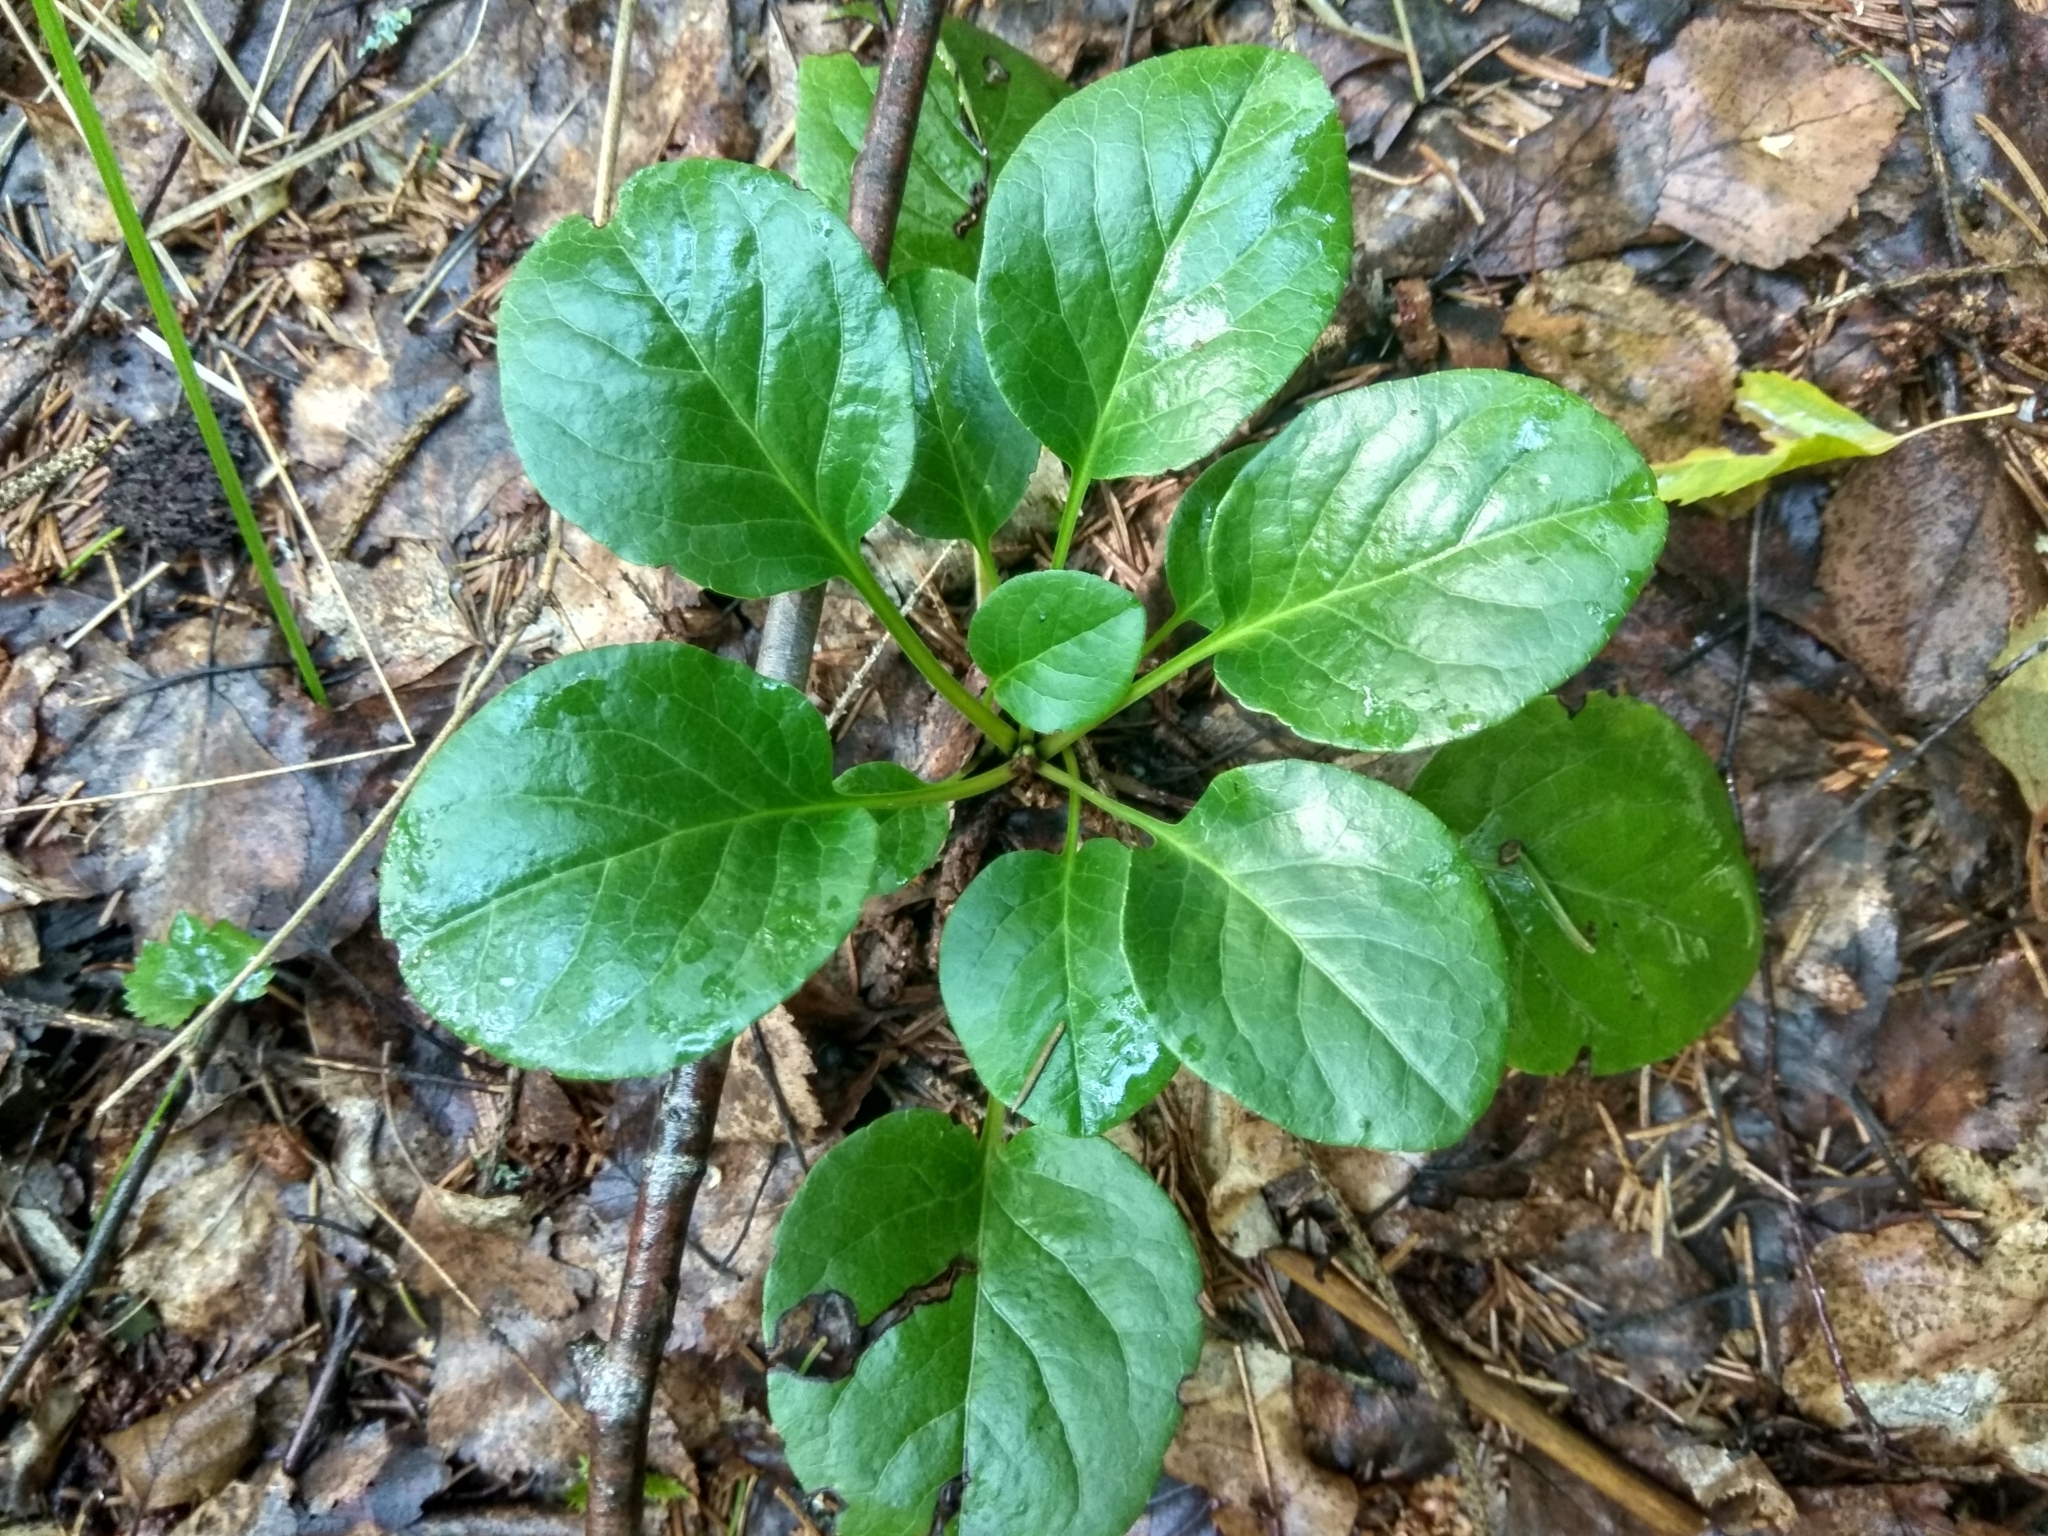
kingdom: Plantae
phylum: Tracheophyta
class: Magnoliopsida
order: Ericales
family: Ericaceae
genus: Pyrola
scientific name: Pyrola
